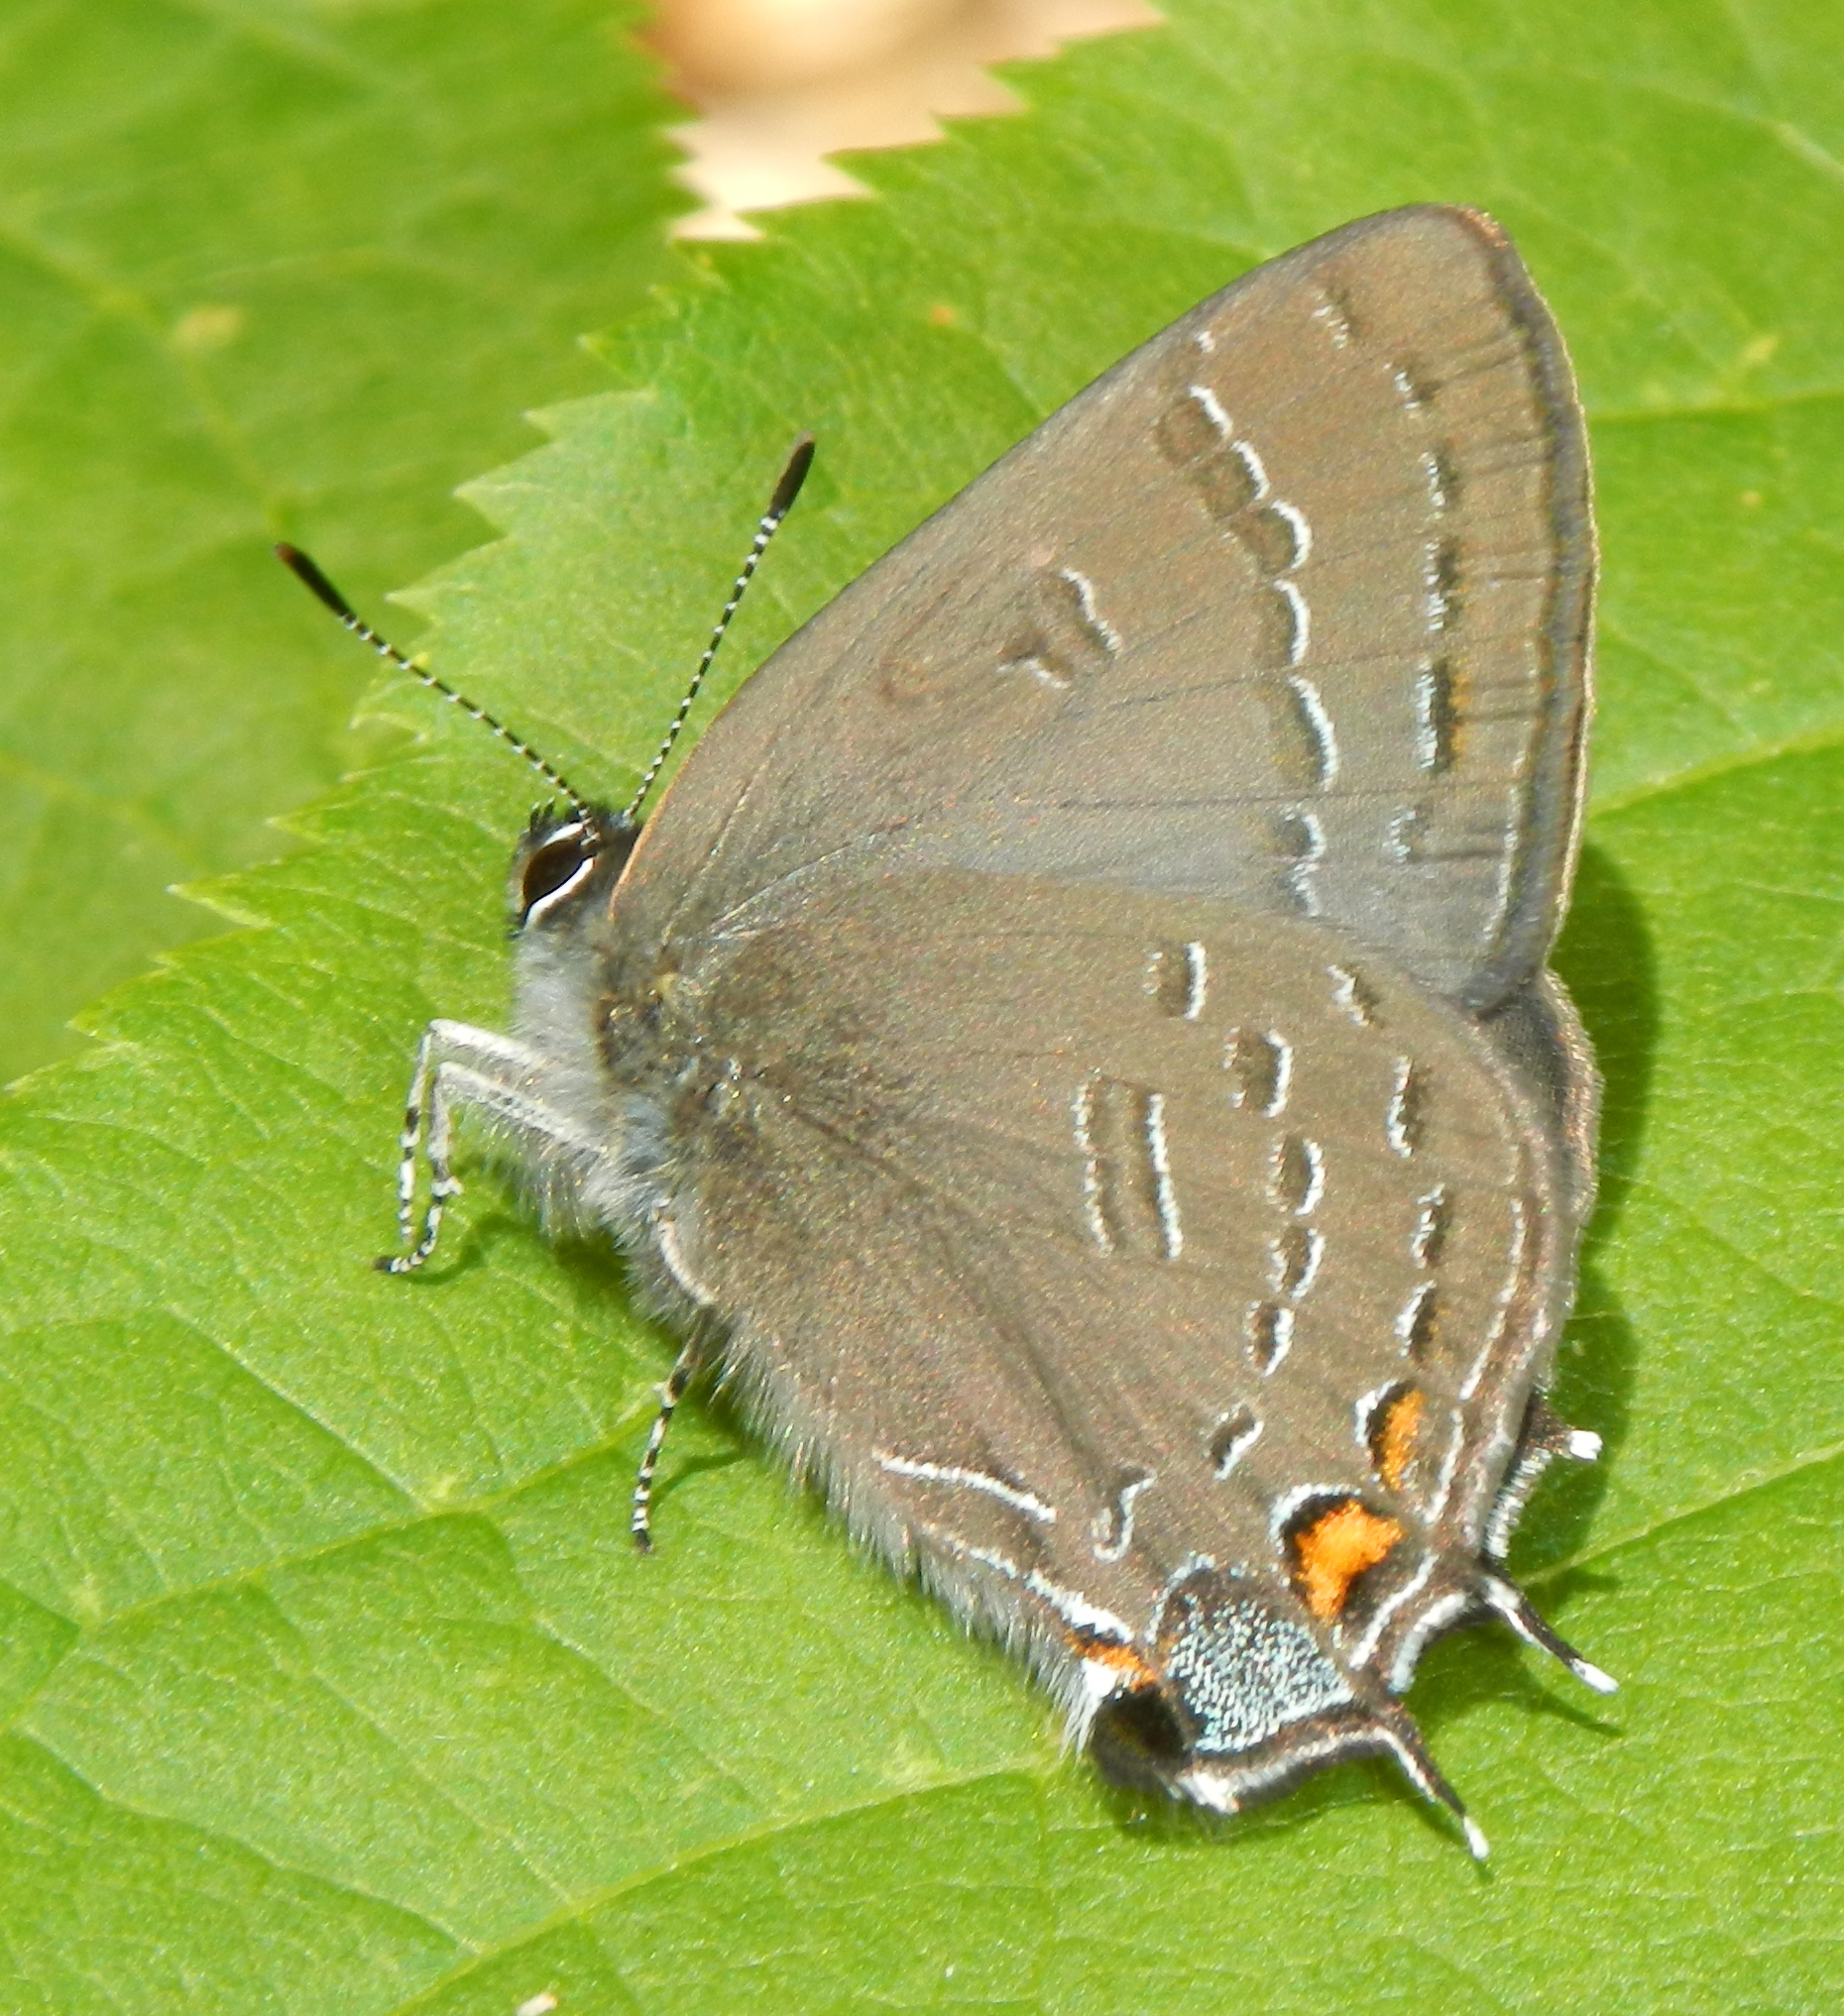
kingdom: Animalia
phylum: Arthropoda
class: Insecta
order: Lepidoptera
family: Lycaenidae
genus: Satyrium
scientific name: Satyrium calanus
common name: Banded hairstreak
